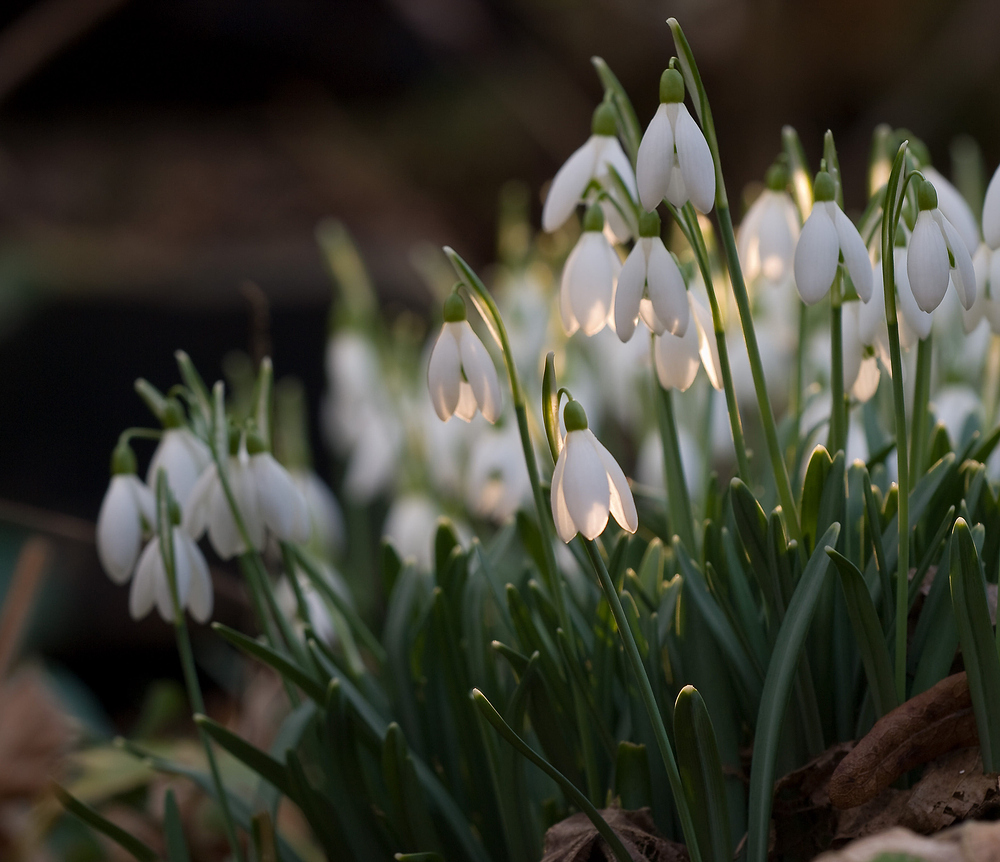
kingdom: Plantae
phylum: Tracheophyta
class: Liliopsida
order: Asparagales
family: Amaryllidaceae
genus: Galanthus
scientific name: Galanthus nivalis
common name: Snowdrop
